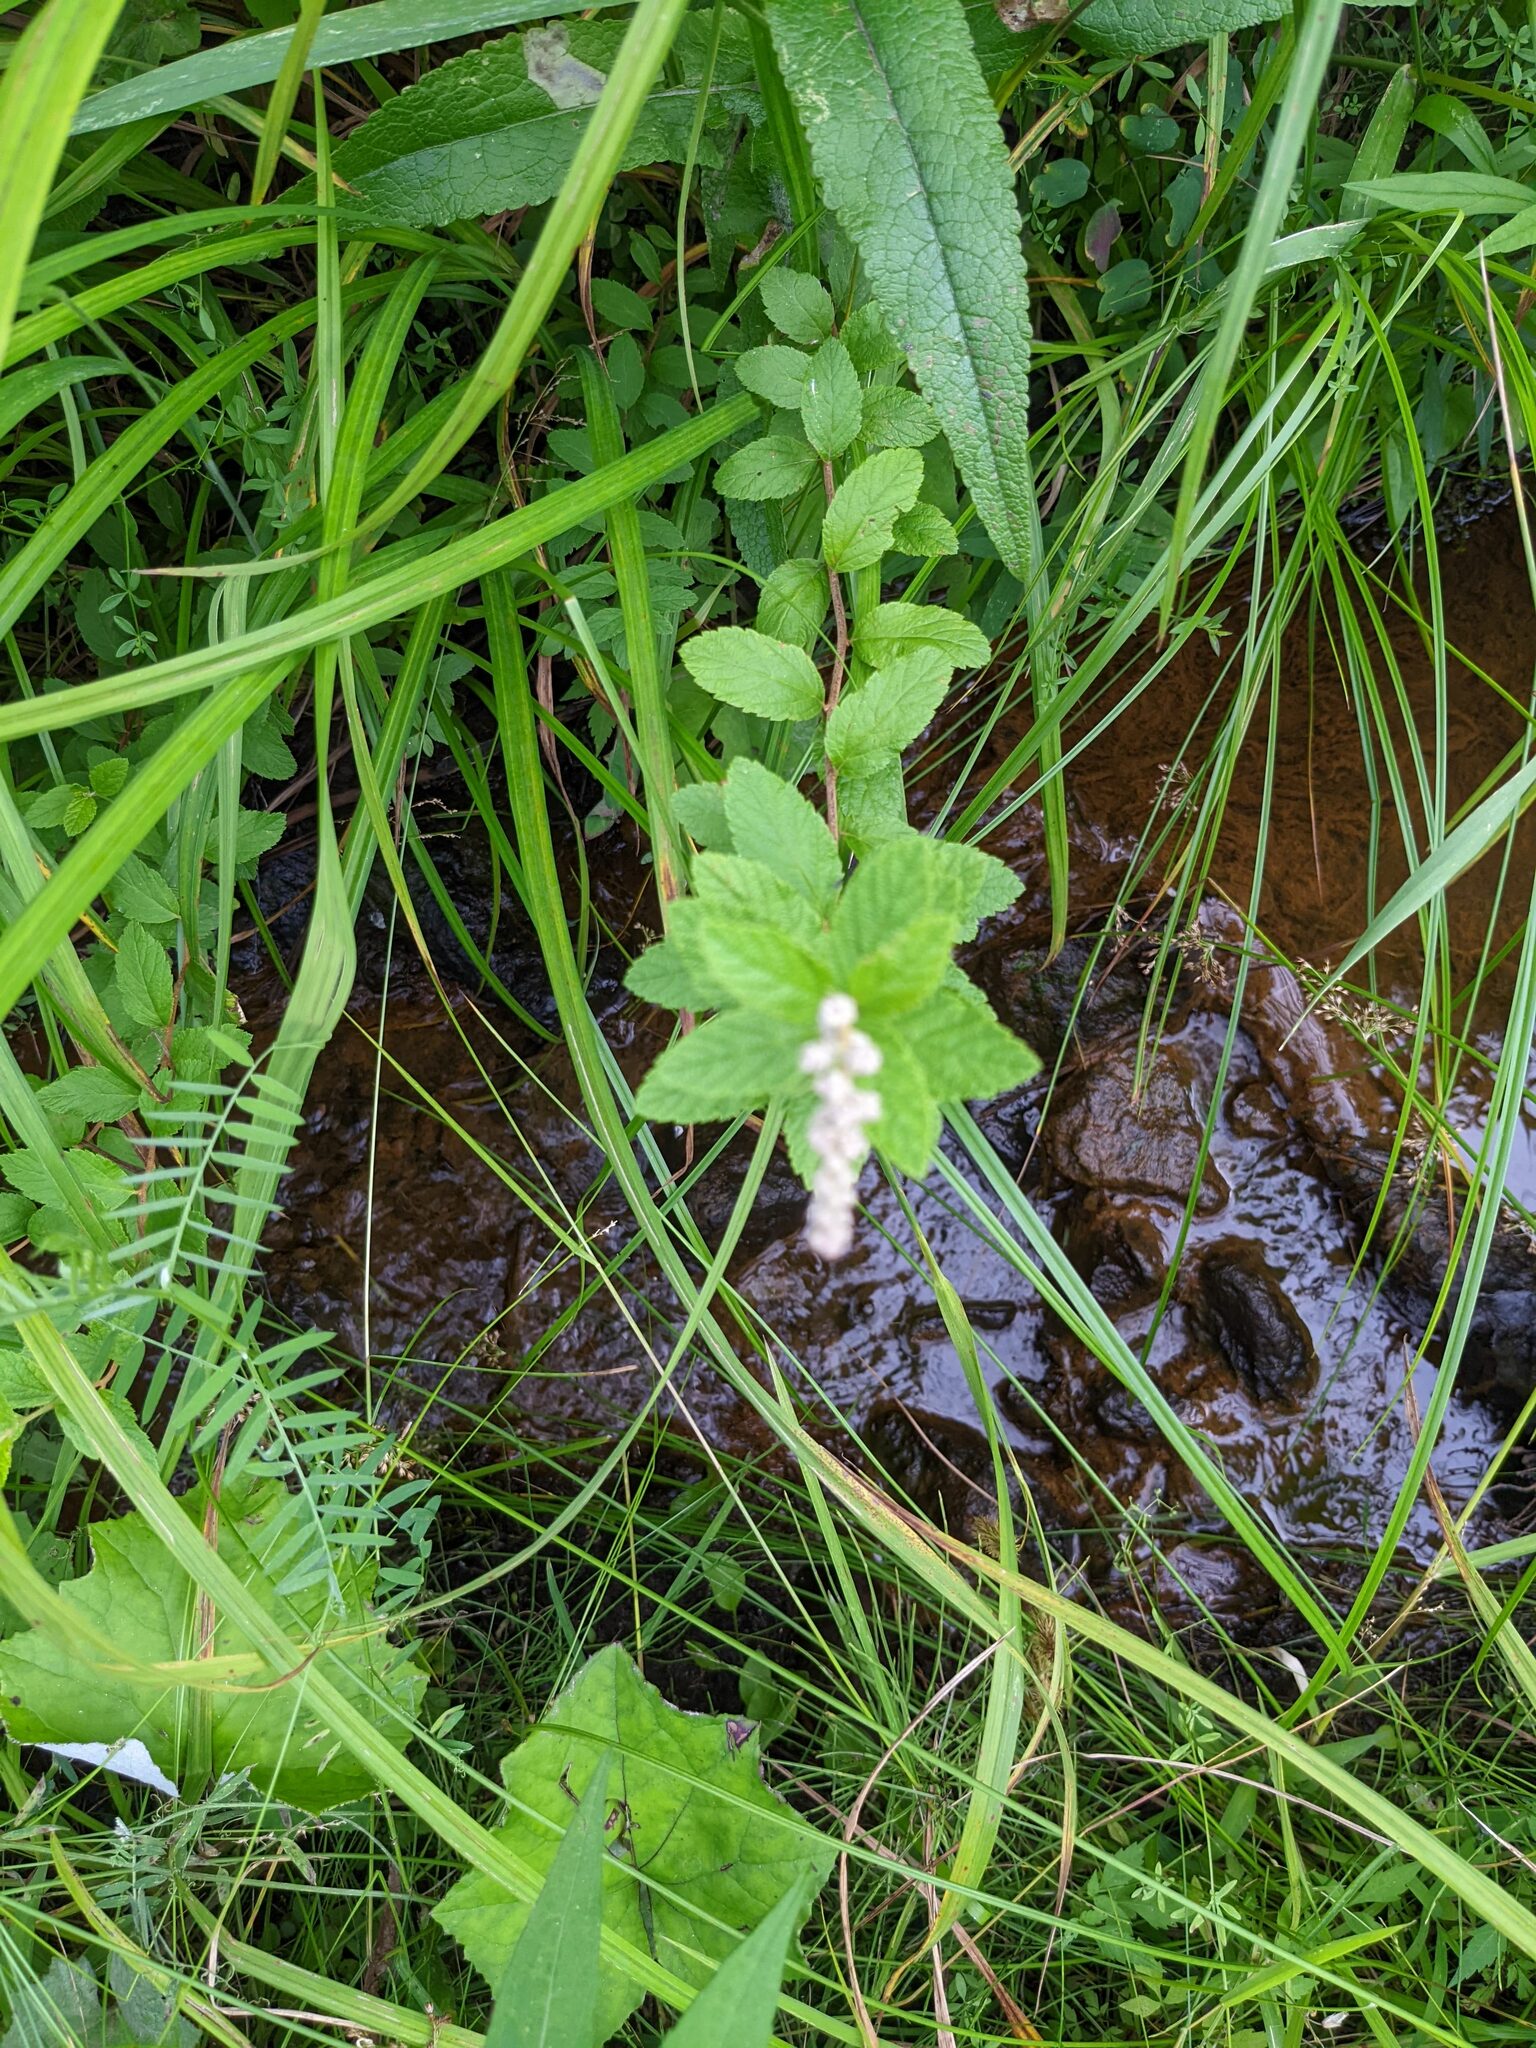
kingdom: Plantae
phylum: Tracheophyta
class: Magnoliopsida
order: Rosales
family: Rosaceae
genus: Spiraea
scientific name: Spiraea tomentosa
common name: Hardhack
